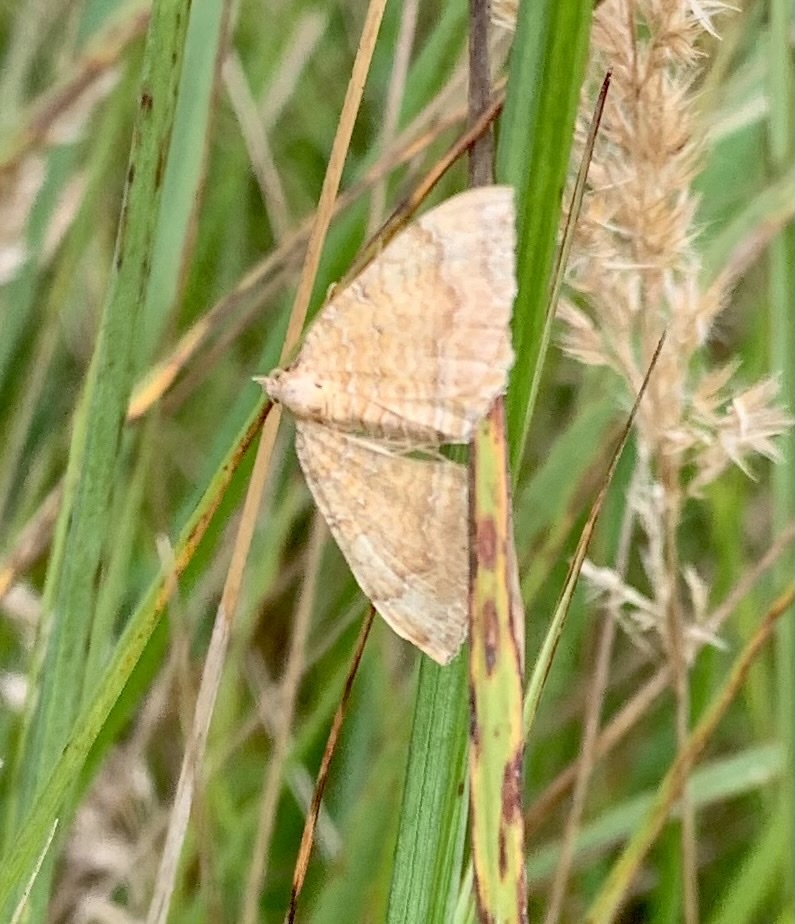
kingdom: Animalia
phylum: Arthropoda
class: Insecta
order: Lepidoptera
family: Geometridae
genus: Camptogramma
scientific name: Camptogramma bilineata
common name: Yellow shell
